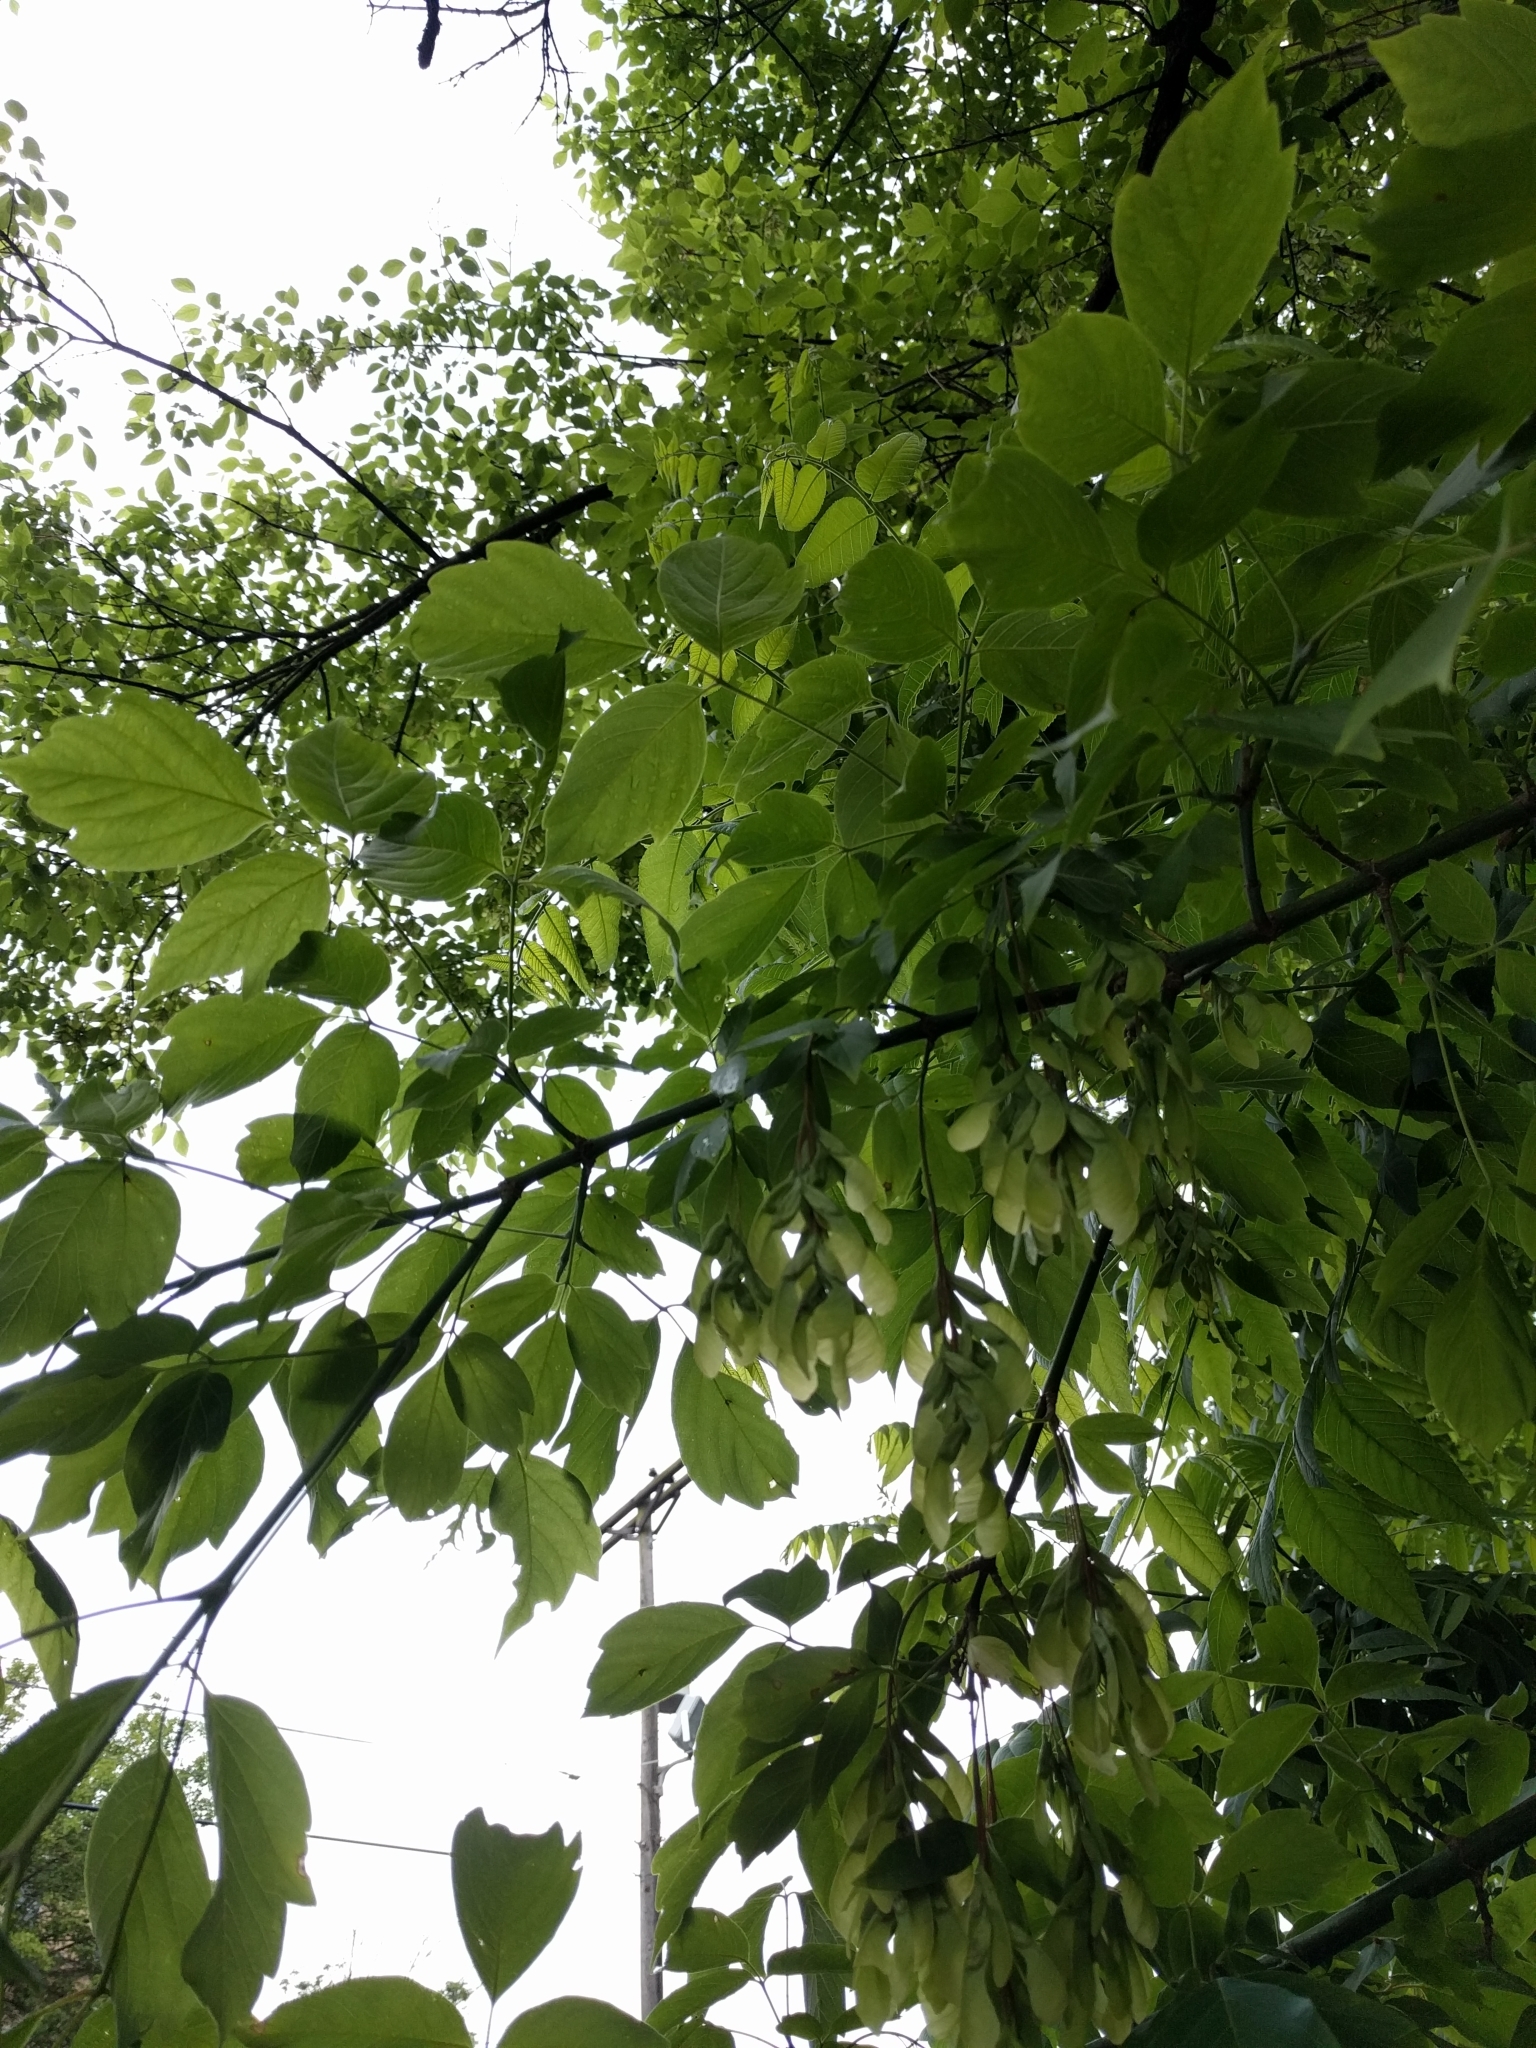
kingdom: Plantae
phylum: Tracheophyta
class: Magnoliopsida
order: Sapindales
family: Sapindaceae
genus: Acer
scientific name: Acer negundo
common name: Ashleaf maple
